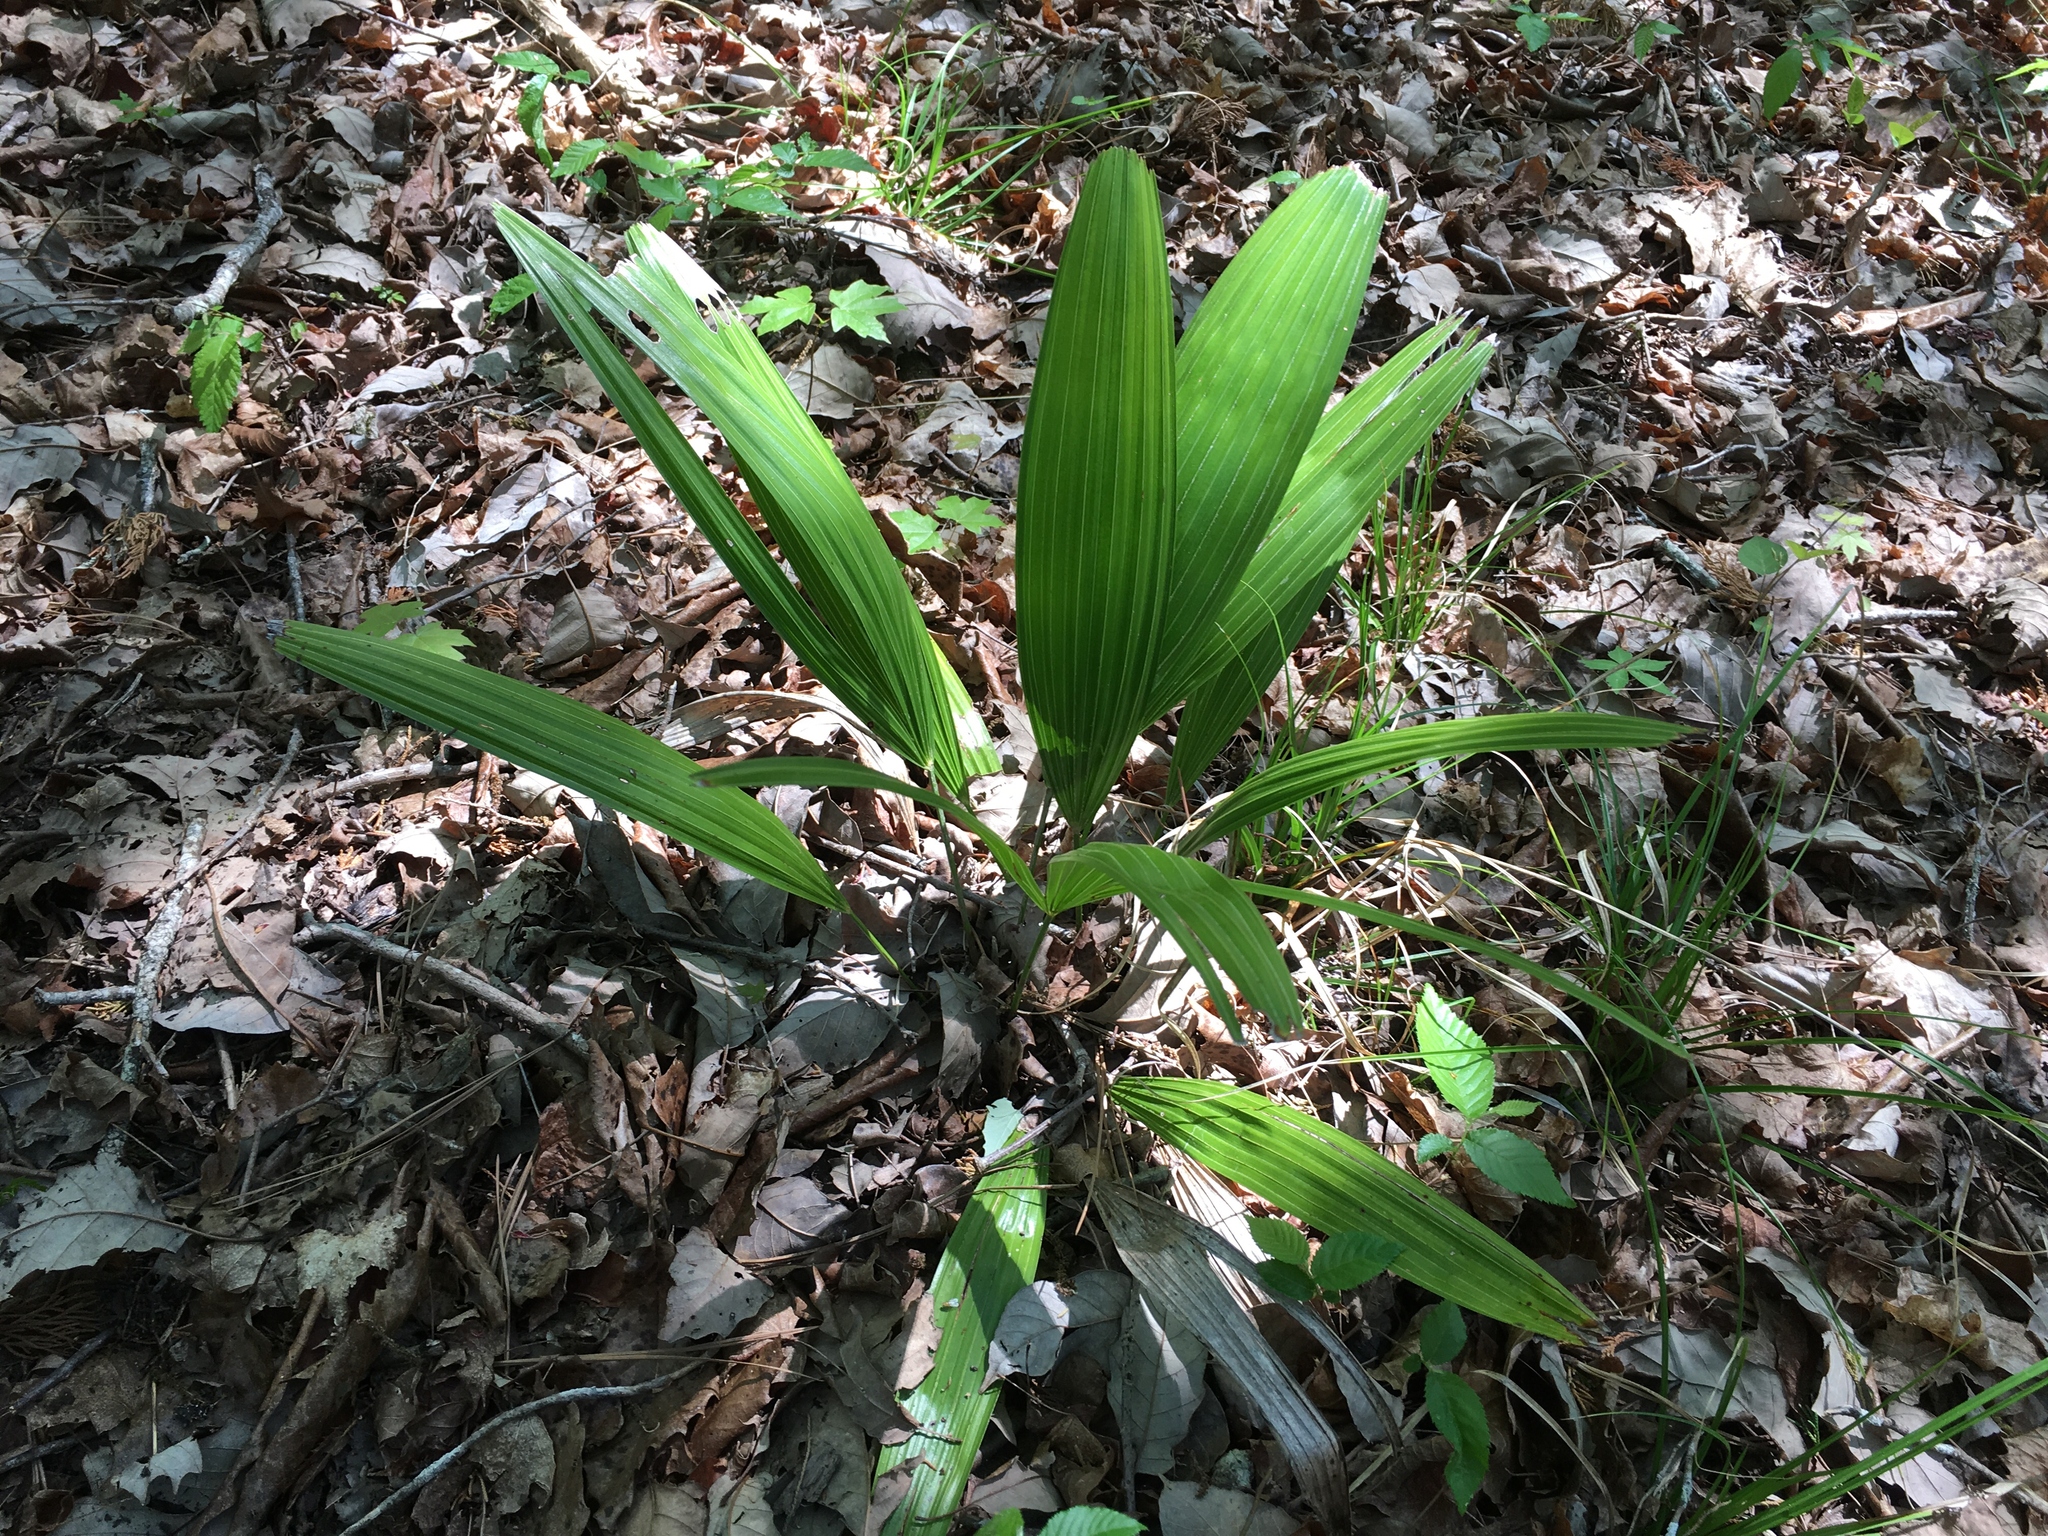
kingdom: Plantae
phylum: Tracheophyta
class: Liliopsida
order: Arecales
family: Arecaceae
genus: Sabal
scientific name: Sabal minor
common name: Dwarf palmetto
